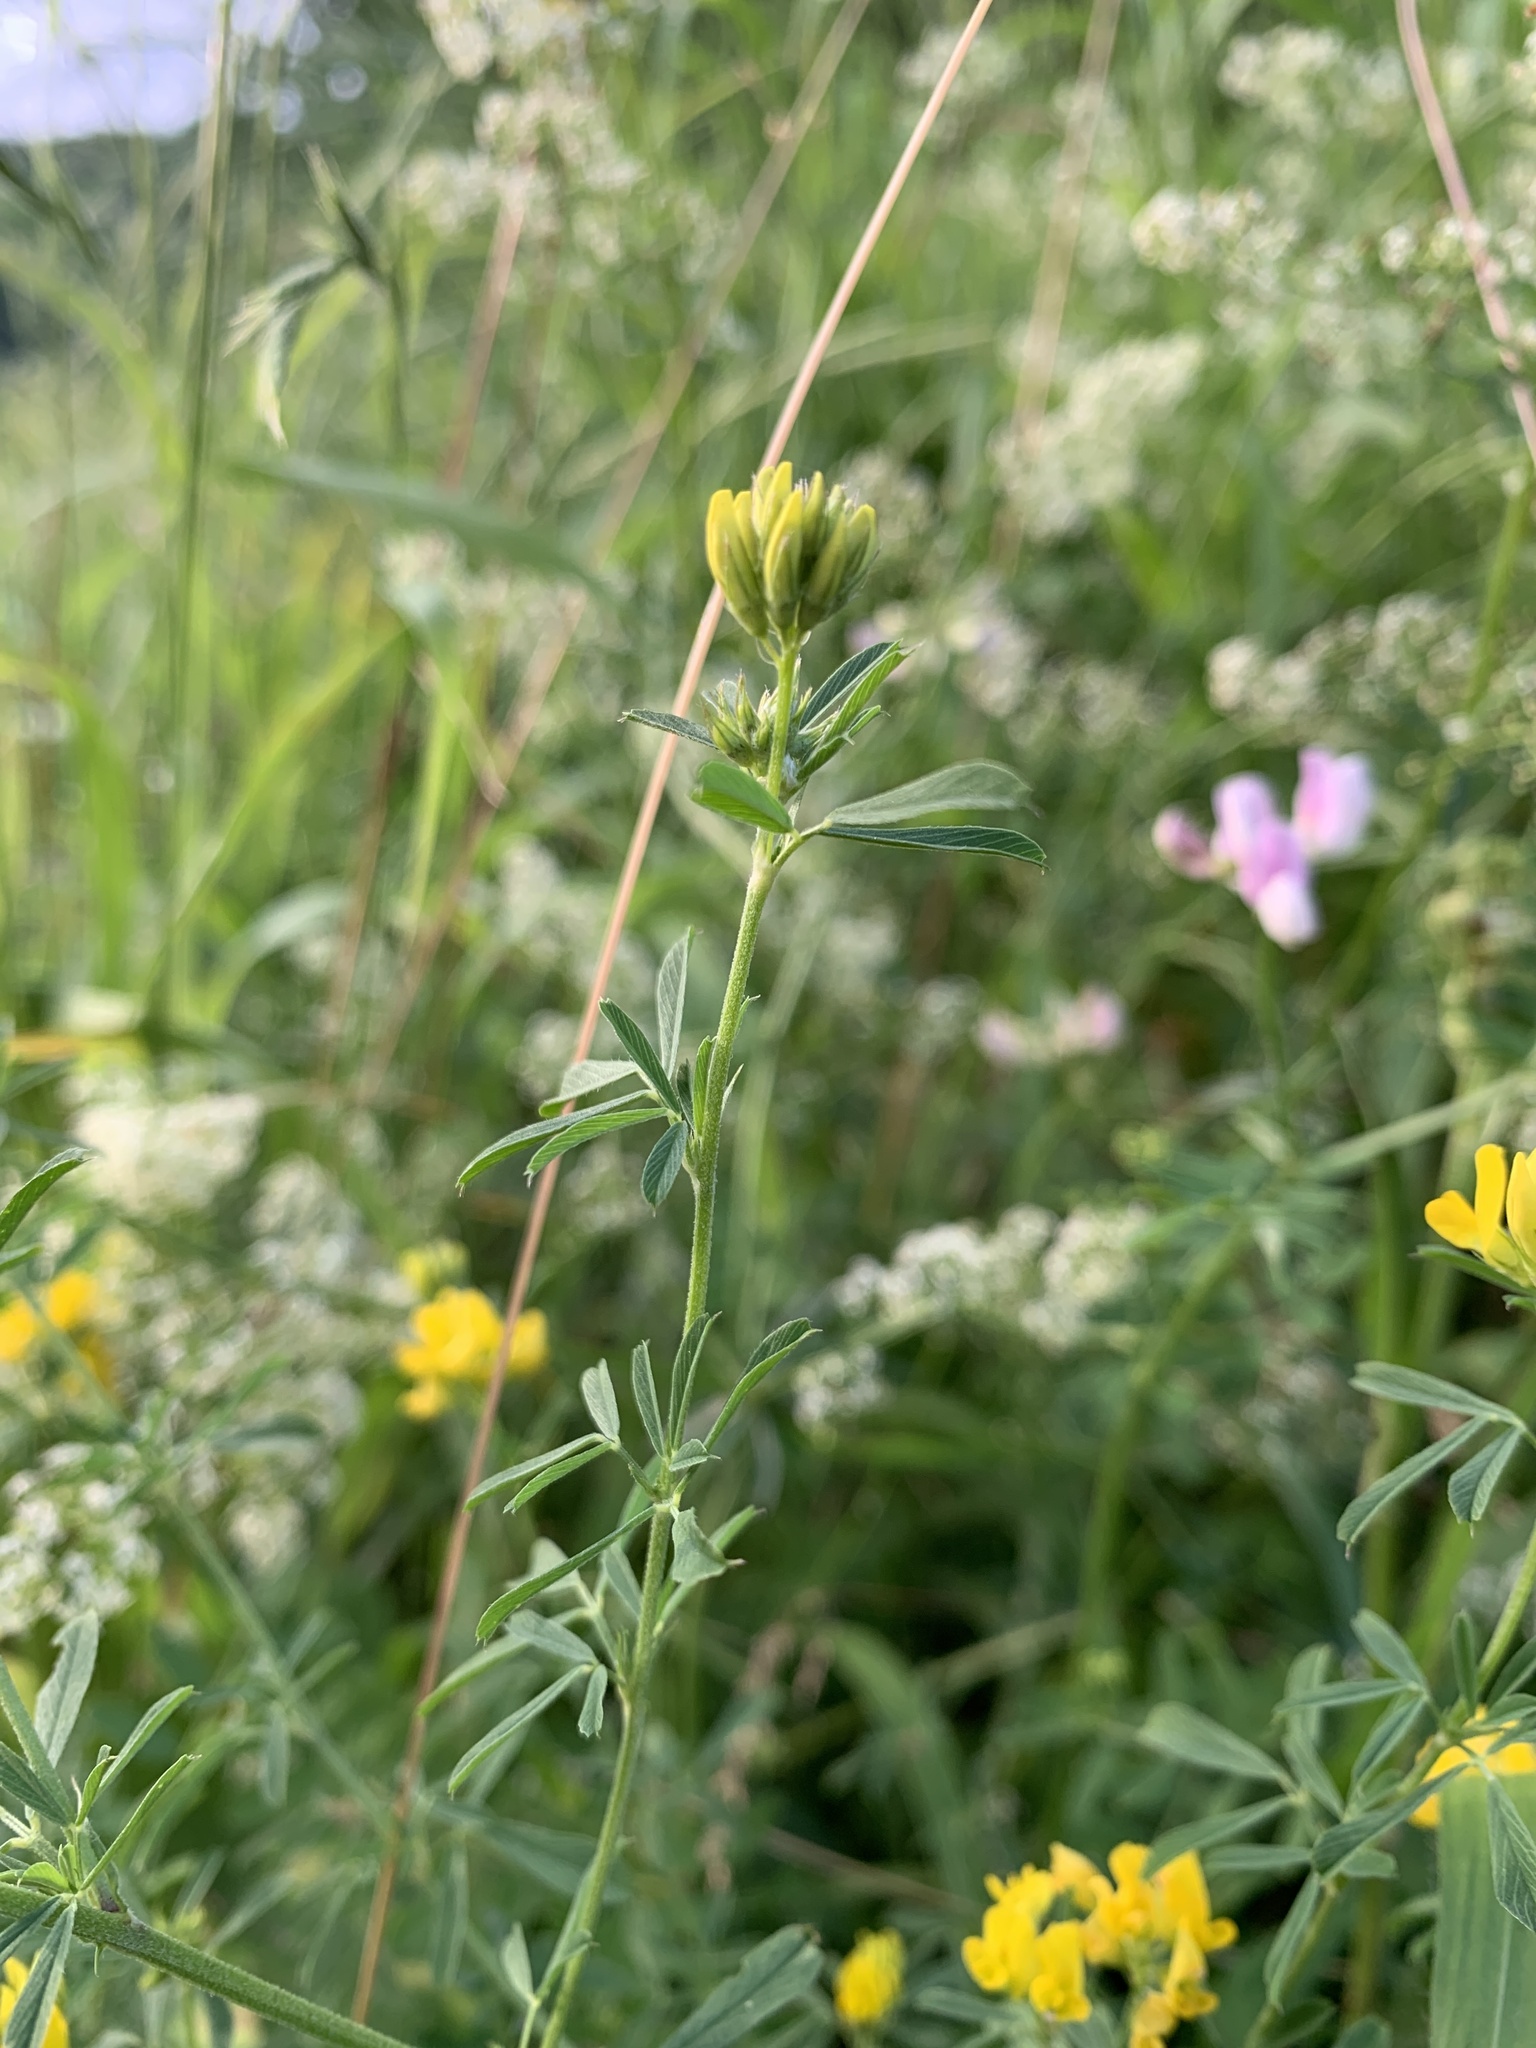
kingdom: Plantae
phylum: Tracheophyta
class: Magnoliopsida
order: Fabales
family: Fabaceae
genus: Medicago
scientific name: Medicago falcata
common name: Sickle medick
